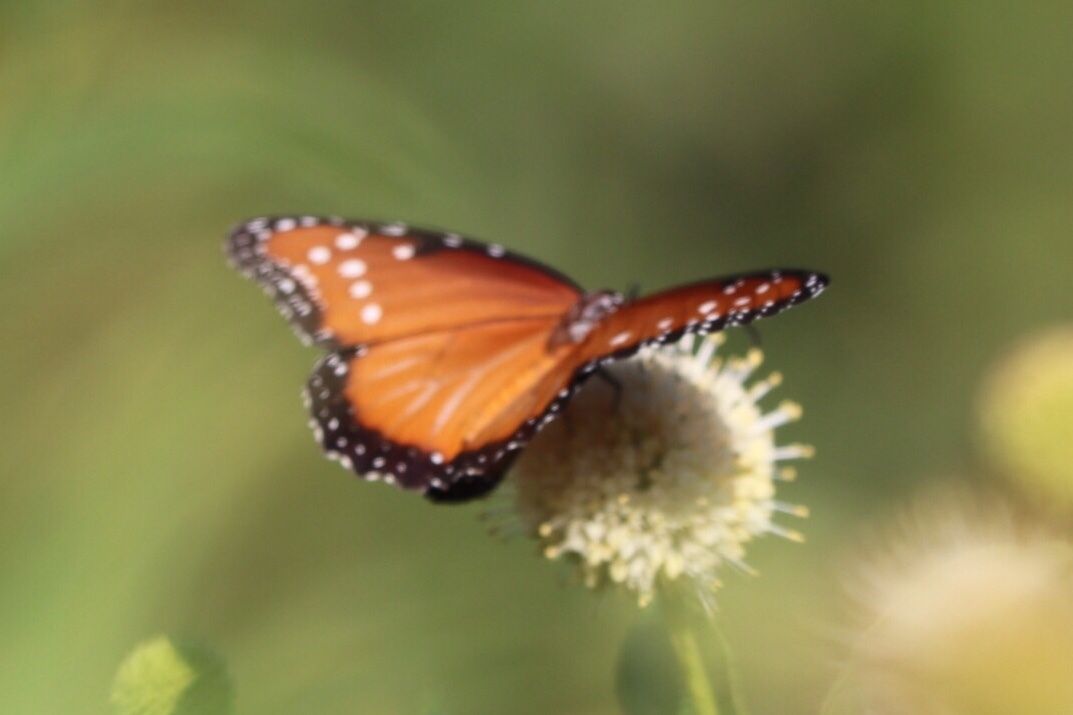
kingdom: Animalia
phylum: Arthropoda
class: Insecta
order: Lepidoptera
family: Nymphalidae
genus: Danaus
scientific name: Danaus gilippus
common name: Queen
